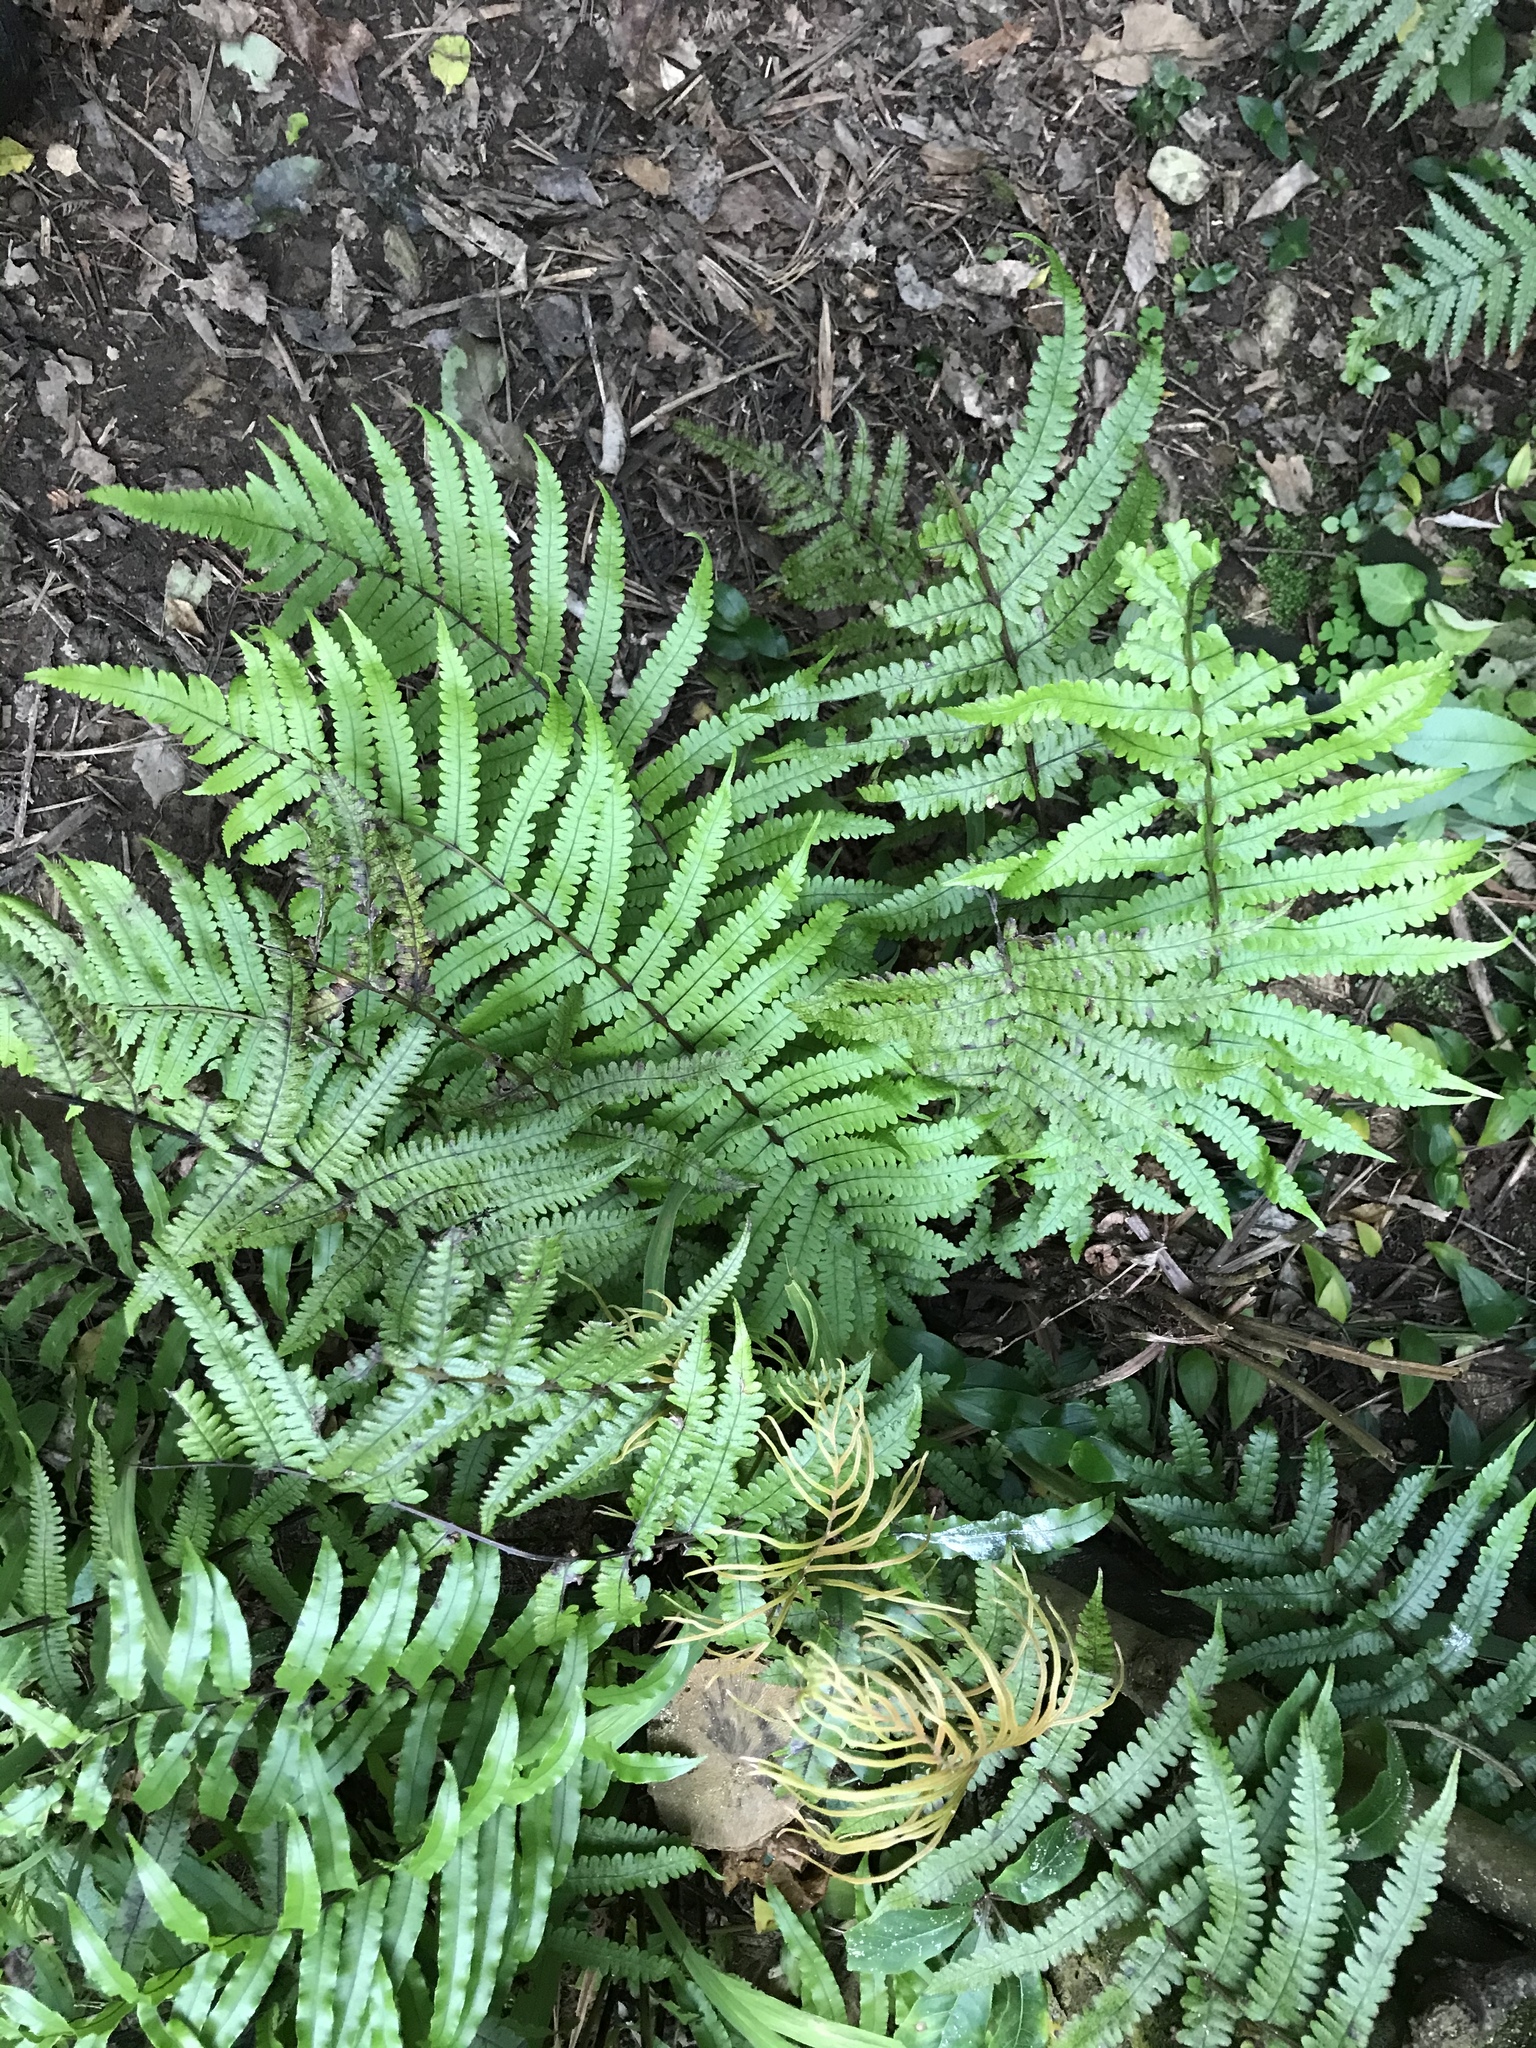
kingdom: Plantae
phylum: Tracheophyta
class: Polypodiopsida
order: Polypodiales
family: Thelypteridaceae
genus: Pakau
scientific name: Pakau pennigera
